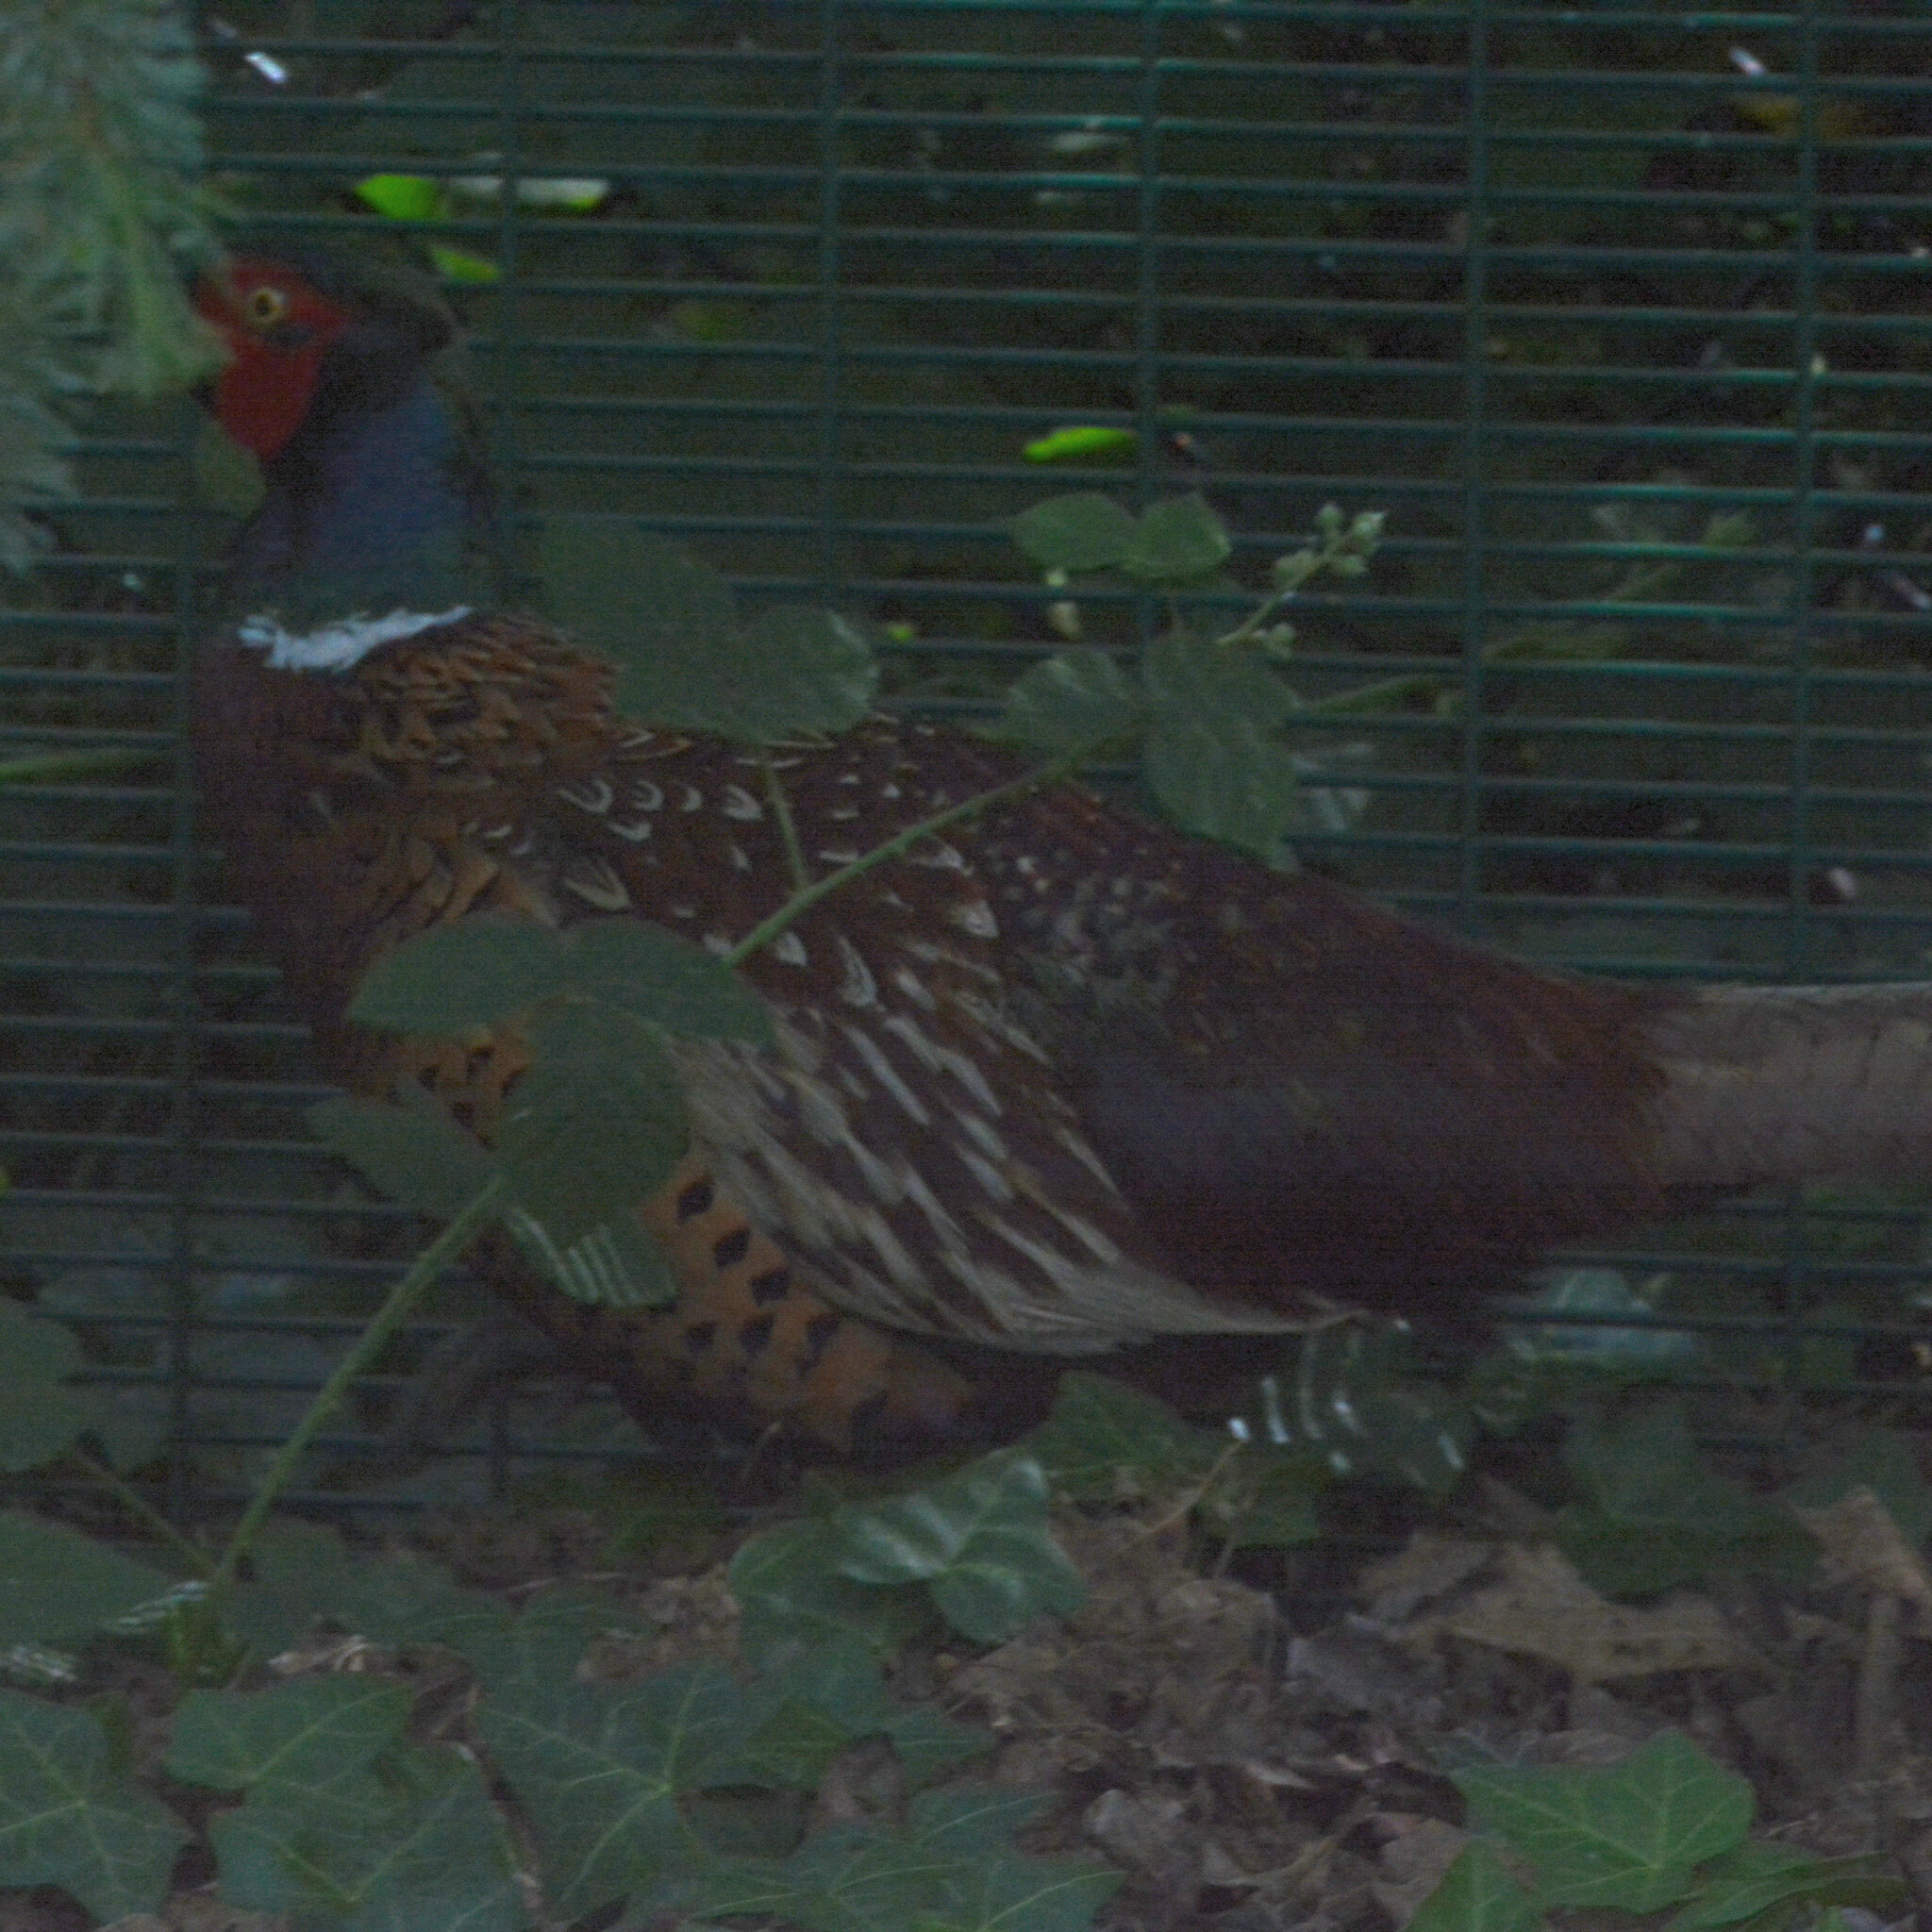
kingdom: Animalia
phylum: Chordata
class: Aves
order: Galliformes
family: Phasianidae
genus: Phasianus
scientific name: Phasianus colchicus
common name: Common pheasant
